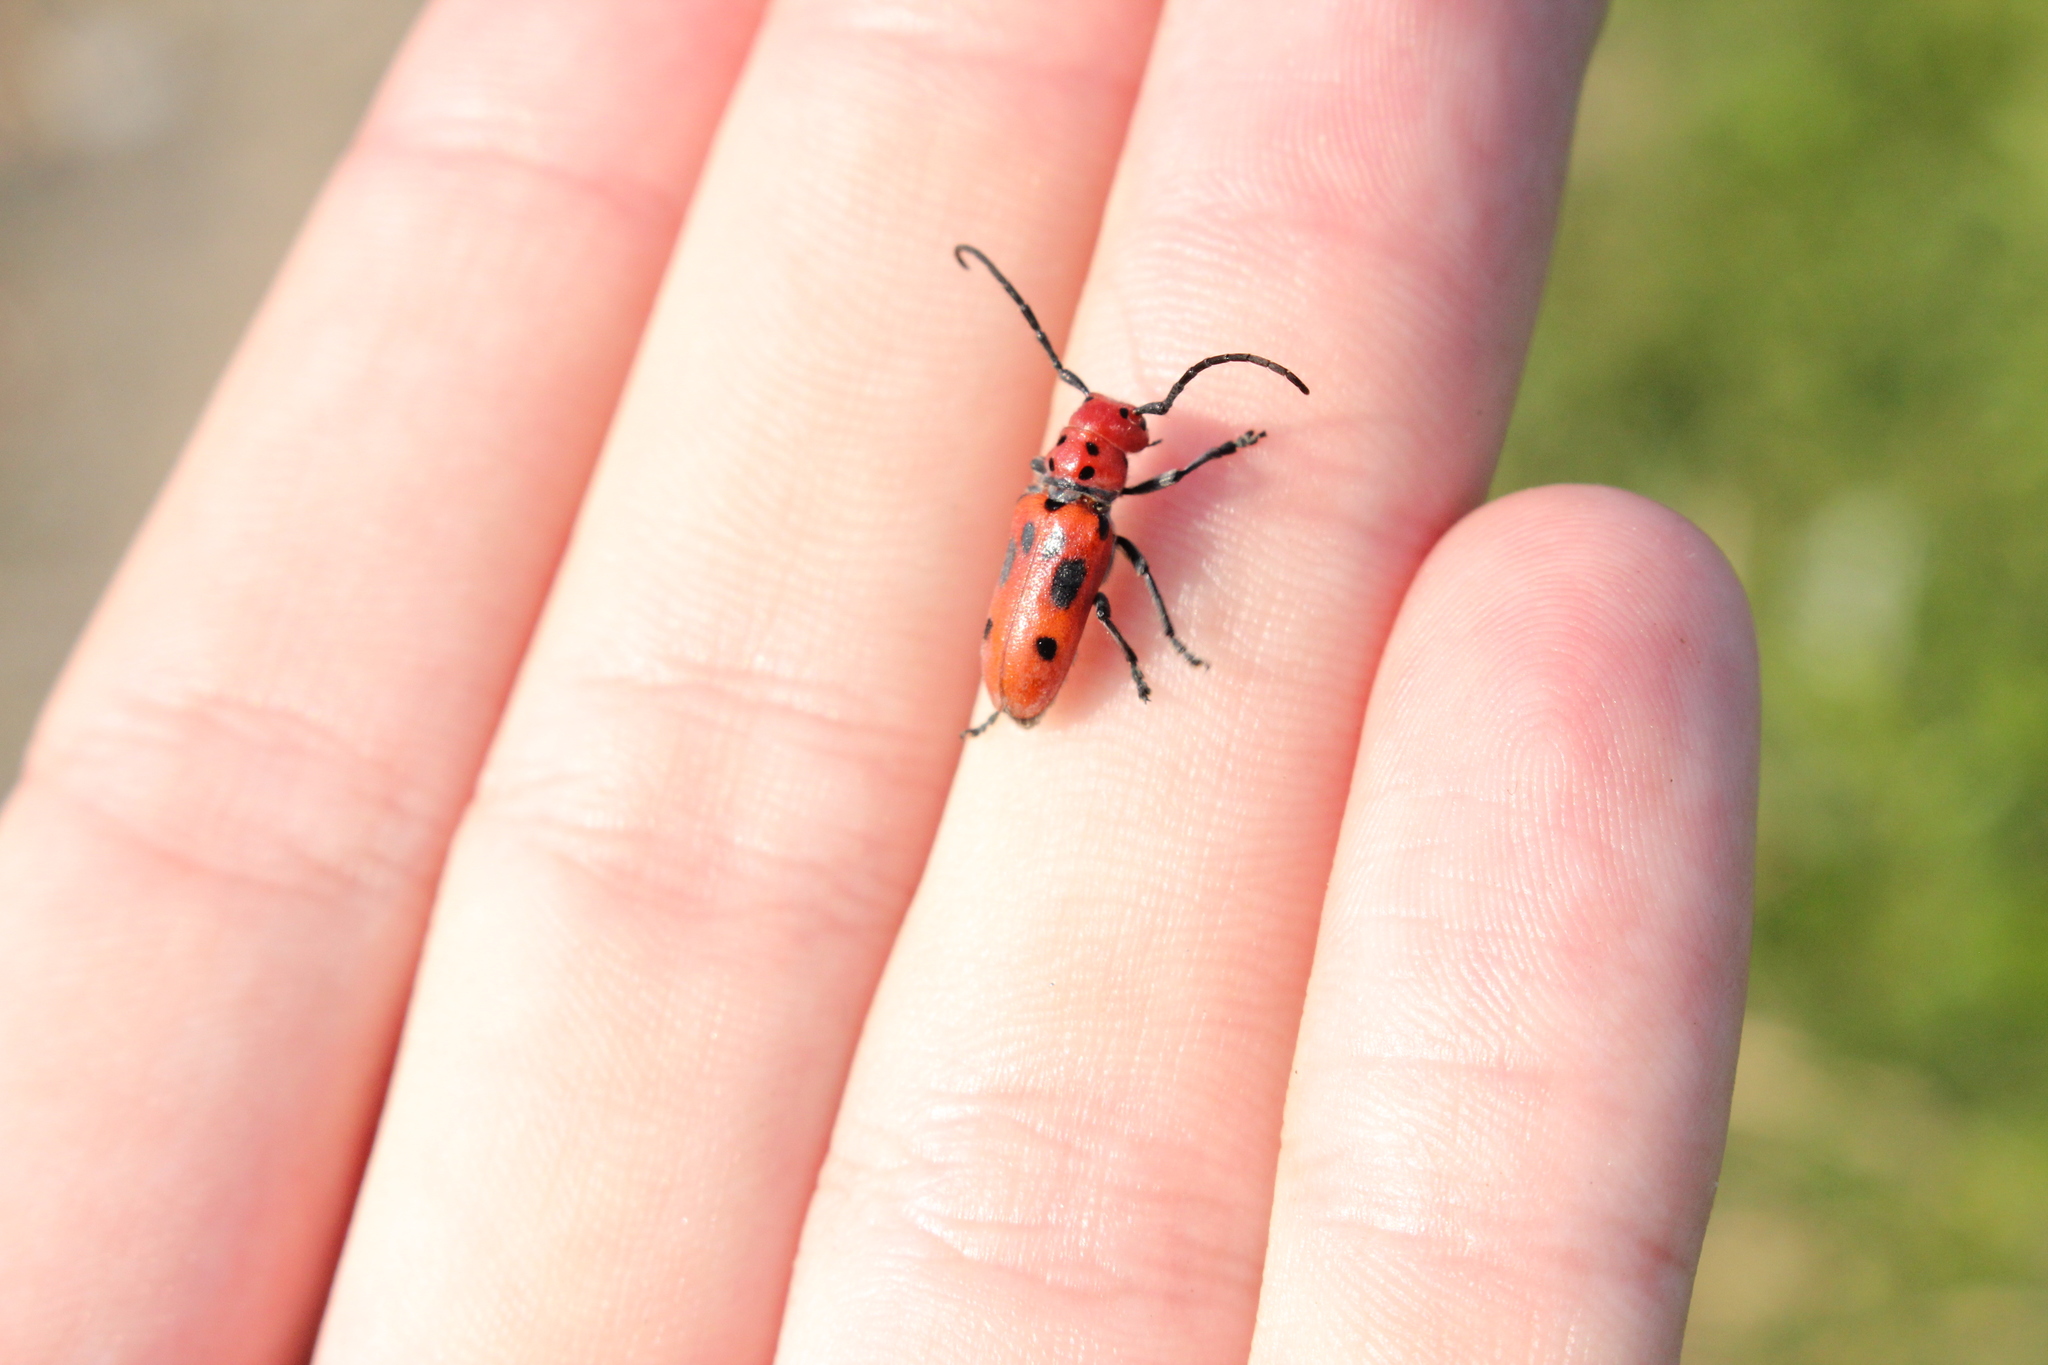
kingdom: Animalia
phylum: Arthropoda
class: Insecta
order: Coleoptera
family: Cerambycidae
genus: Tetraopes
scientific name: Tetraopes tetrophthalmus
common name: Red milkweed beetle
